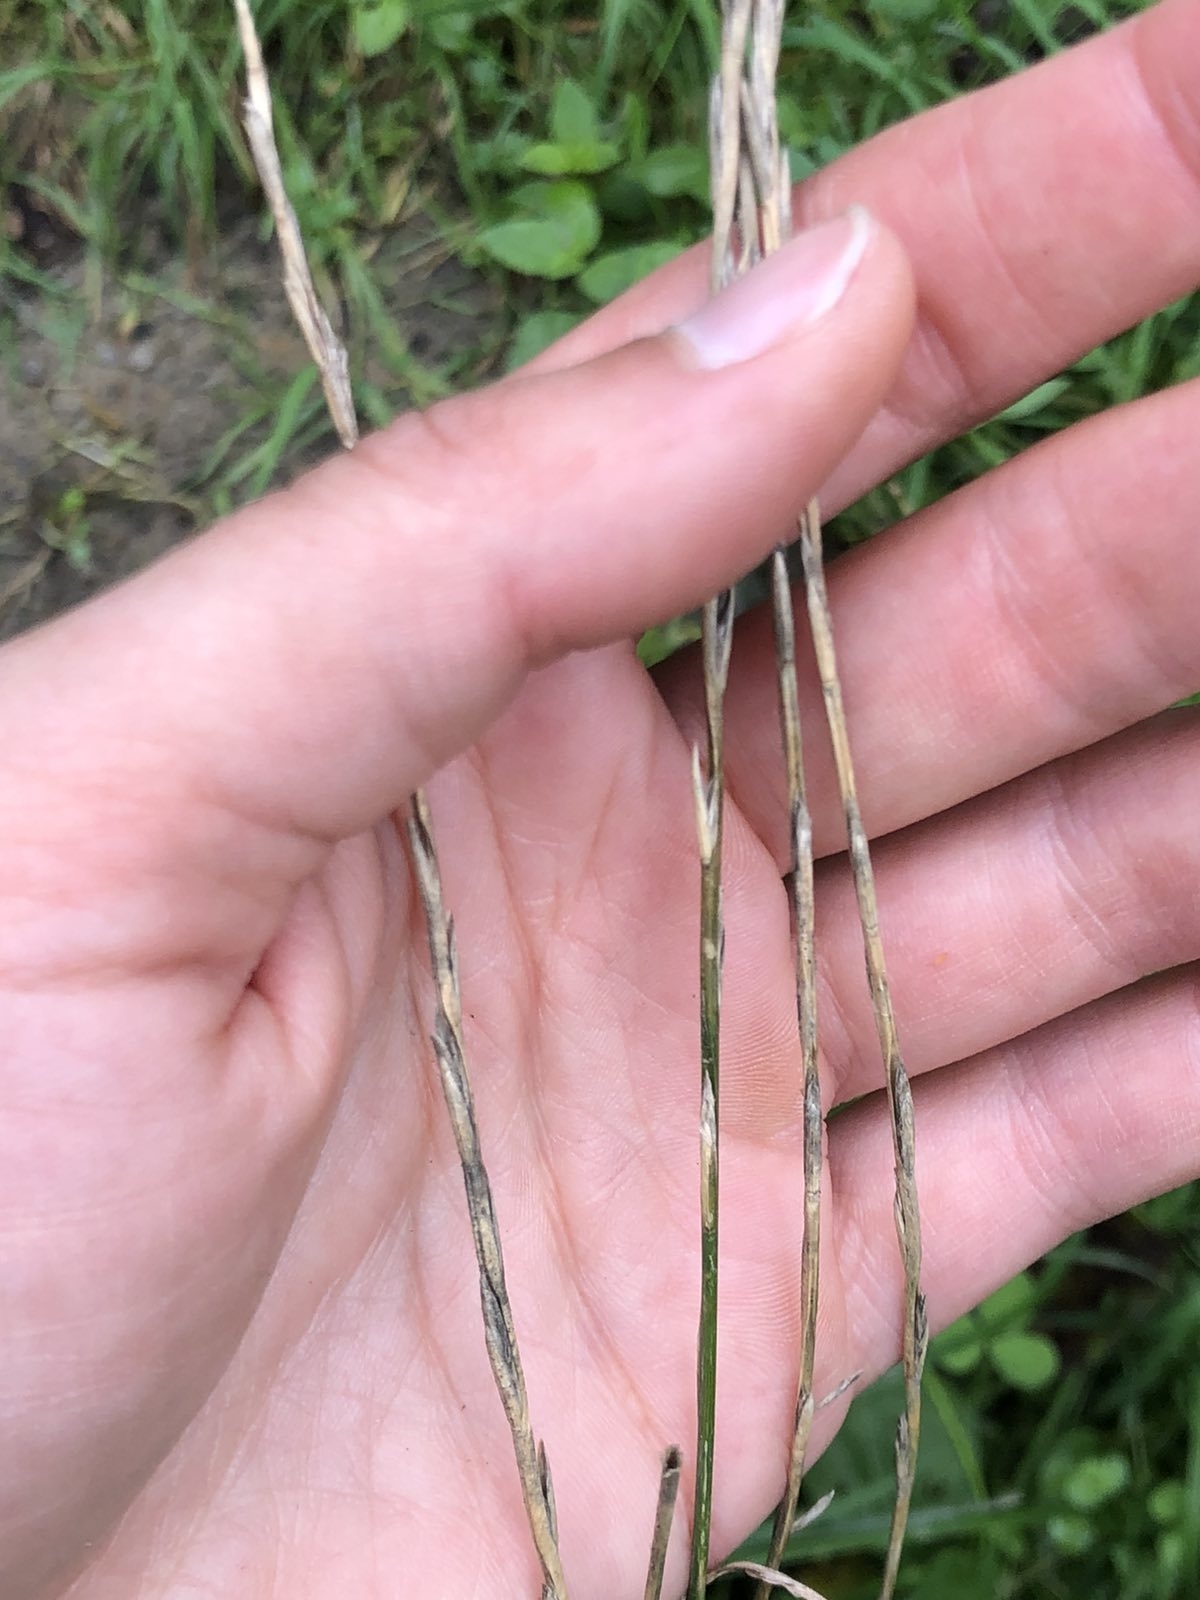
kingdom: Plantae
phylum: Tracheophyta
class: Liliopsida
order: Poales
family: Poaceae
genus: Lolium
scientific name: Lolium perenne
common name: Perennial ryegrass
